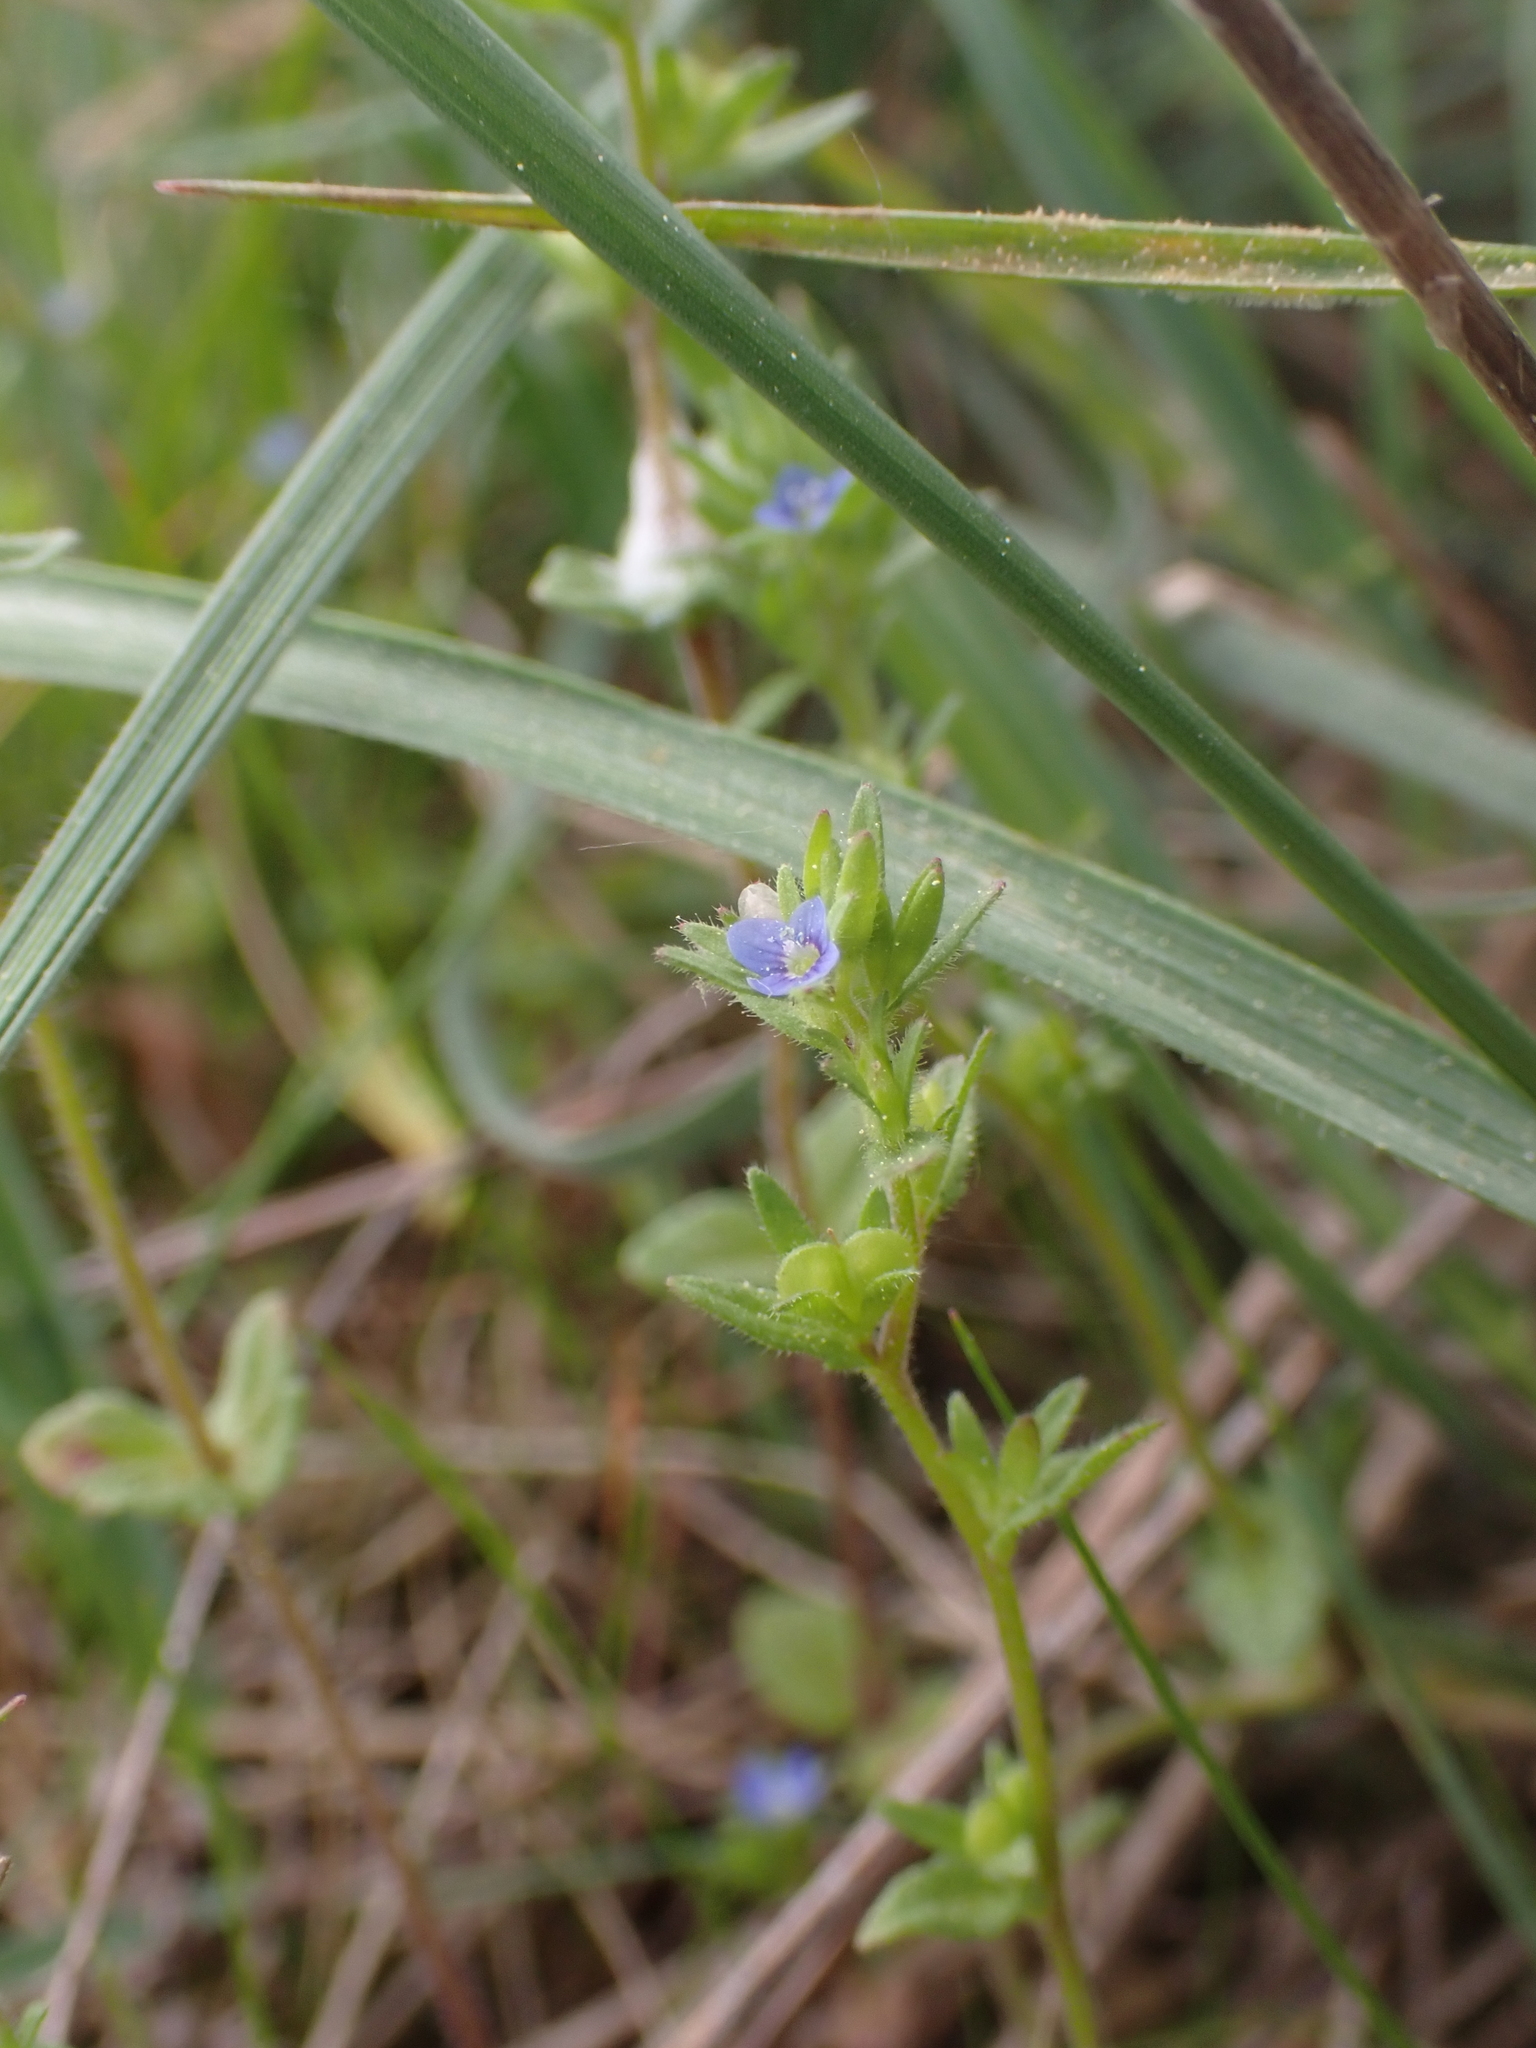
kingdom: Plantae
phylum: Tracheophyta
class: Magnoliopsida
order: Lamiales
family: Plantaginaceae
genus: Veronica
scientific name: Veronica arvensis
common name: Corn speedwell
